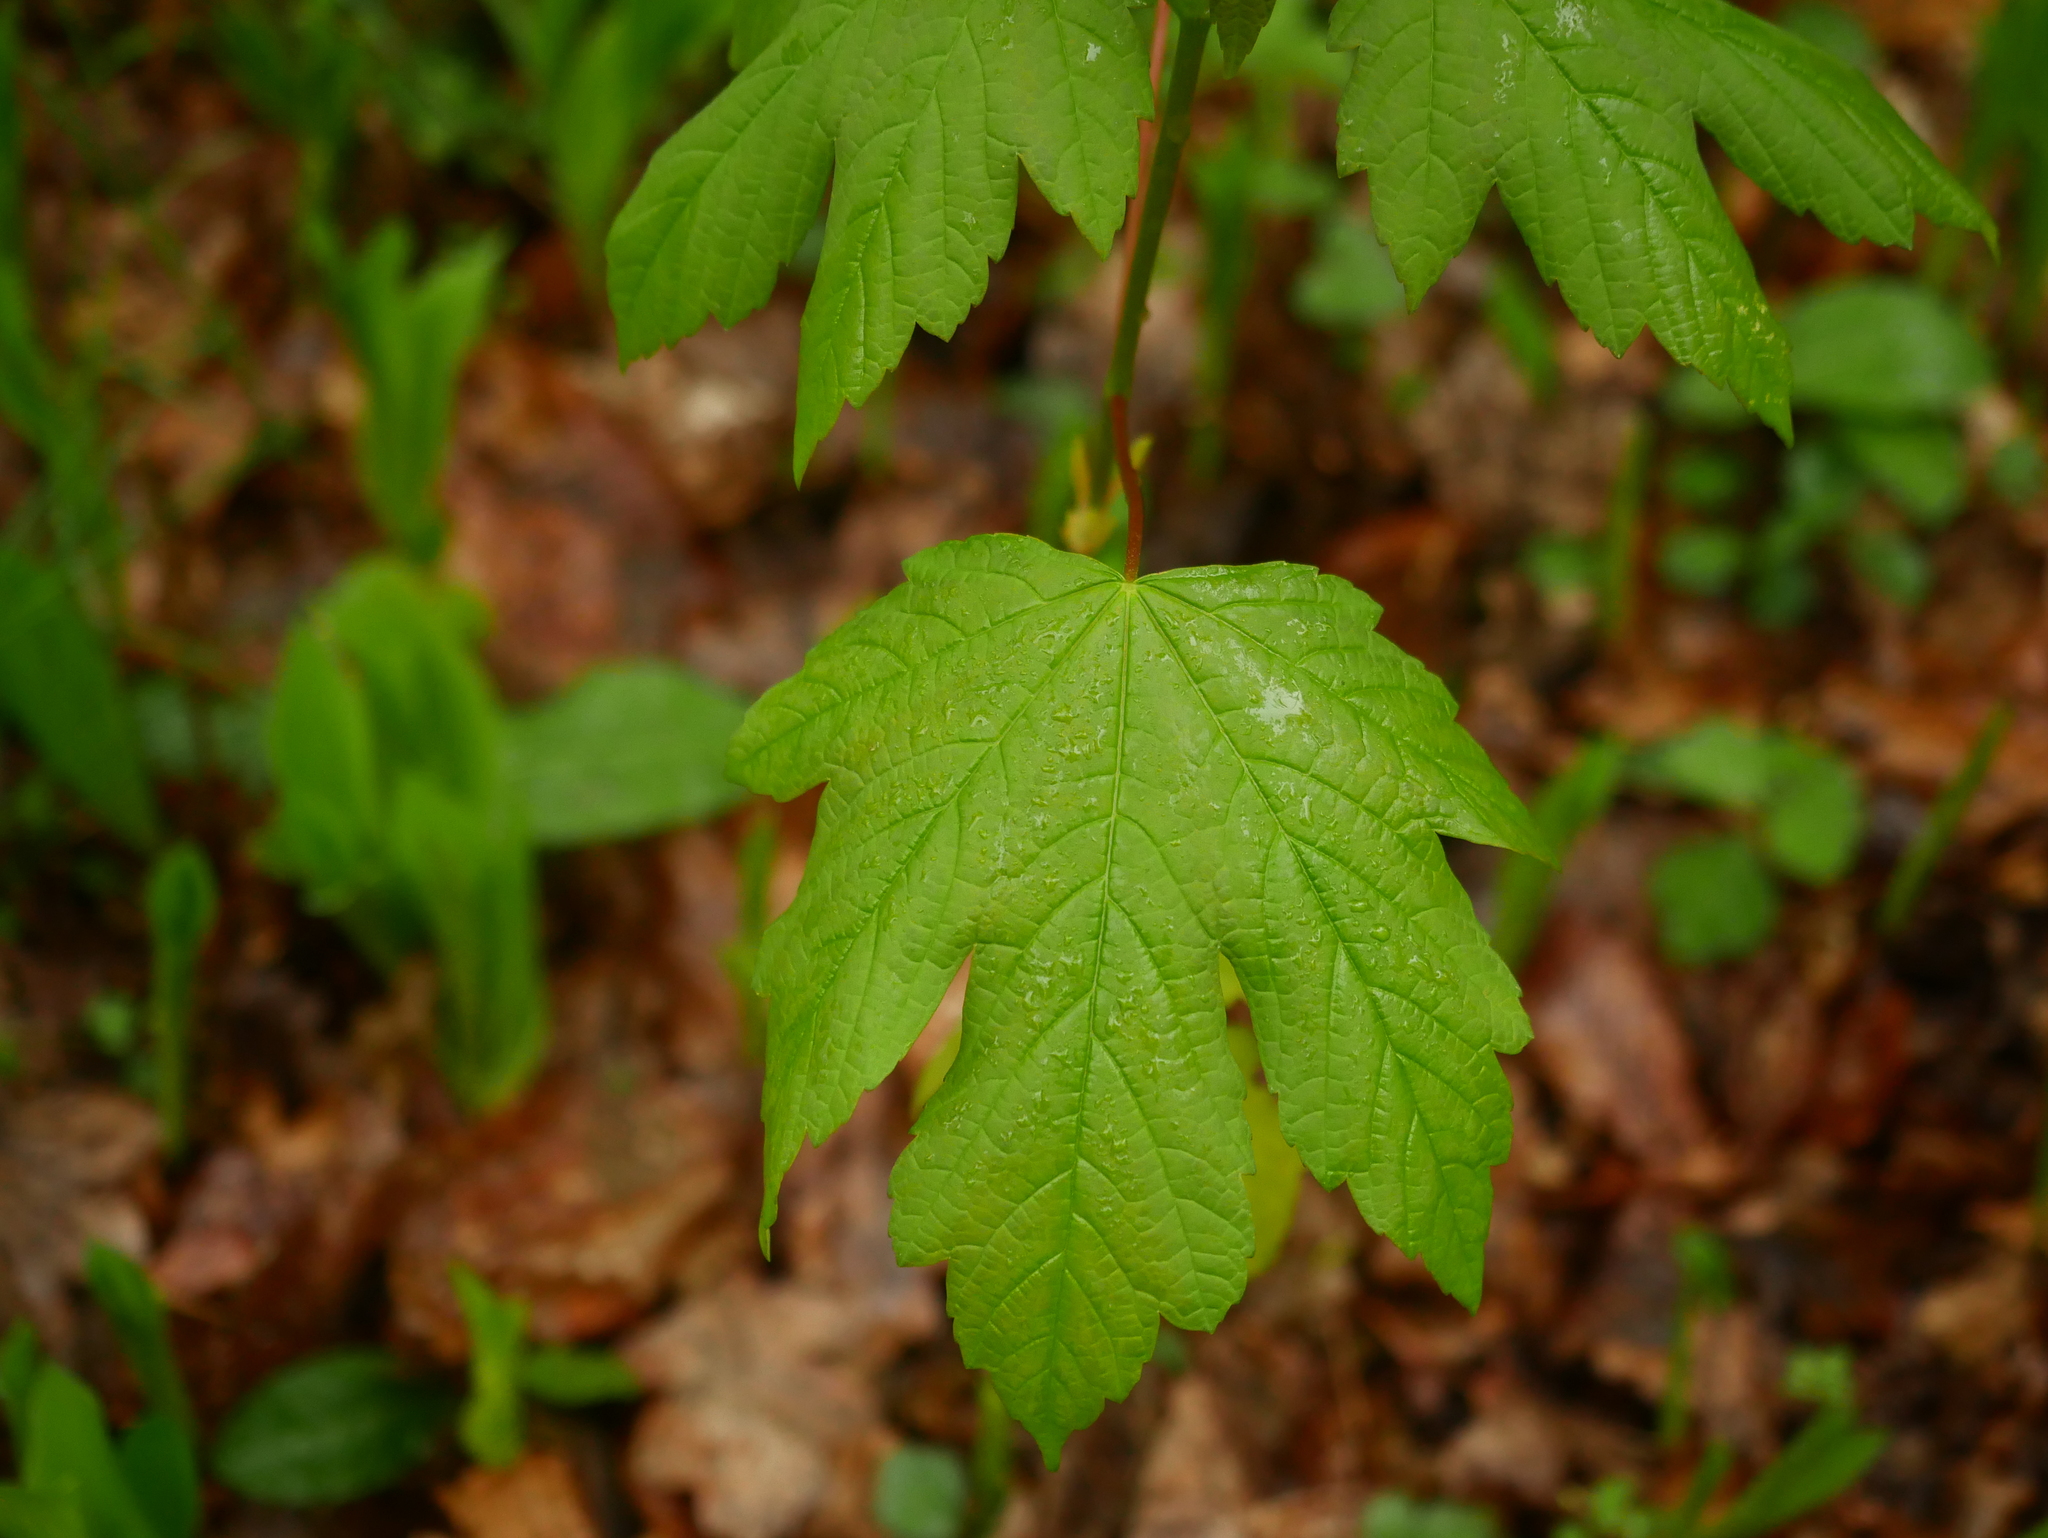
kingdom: Plantae
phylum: Tracheophyta
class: Magnoliopsida
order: Sapindales
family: Sapindaceae
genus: Acer
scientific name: Acer pseudoplatanus
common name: Sycamore
